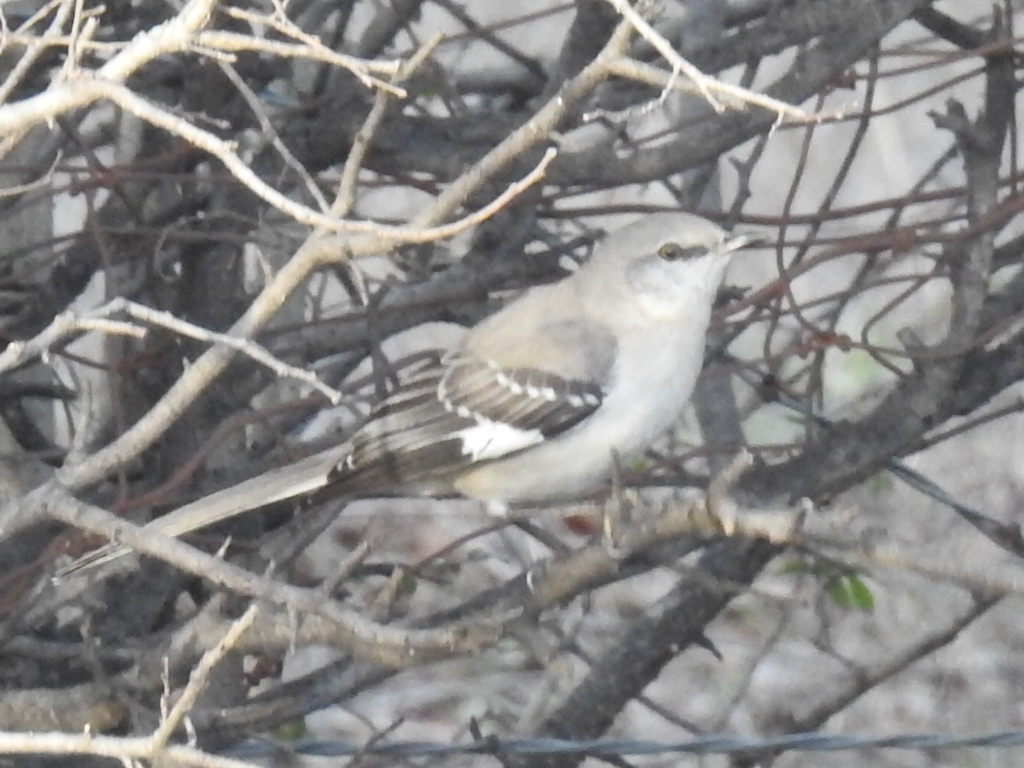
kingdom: Animalia
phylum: Chordata
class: Aves
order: Passeriformes
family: Mimidae
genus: Mimus
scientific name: Mimus polyglottos
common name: Northern mockingbird
